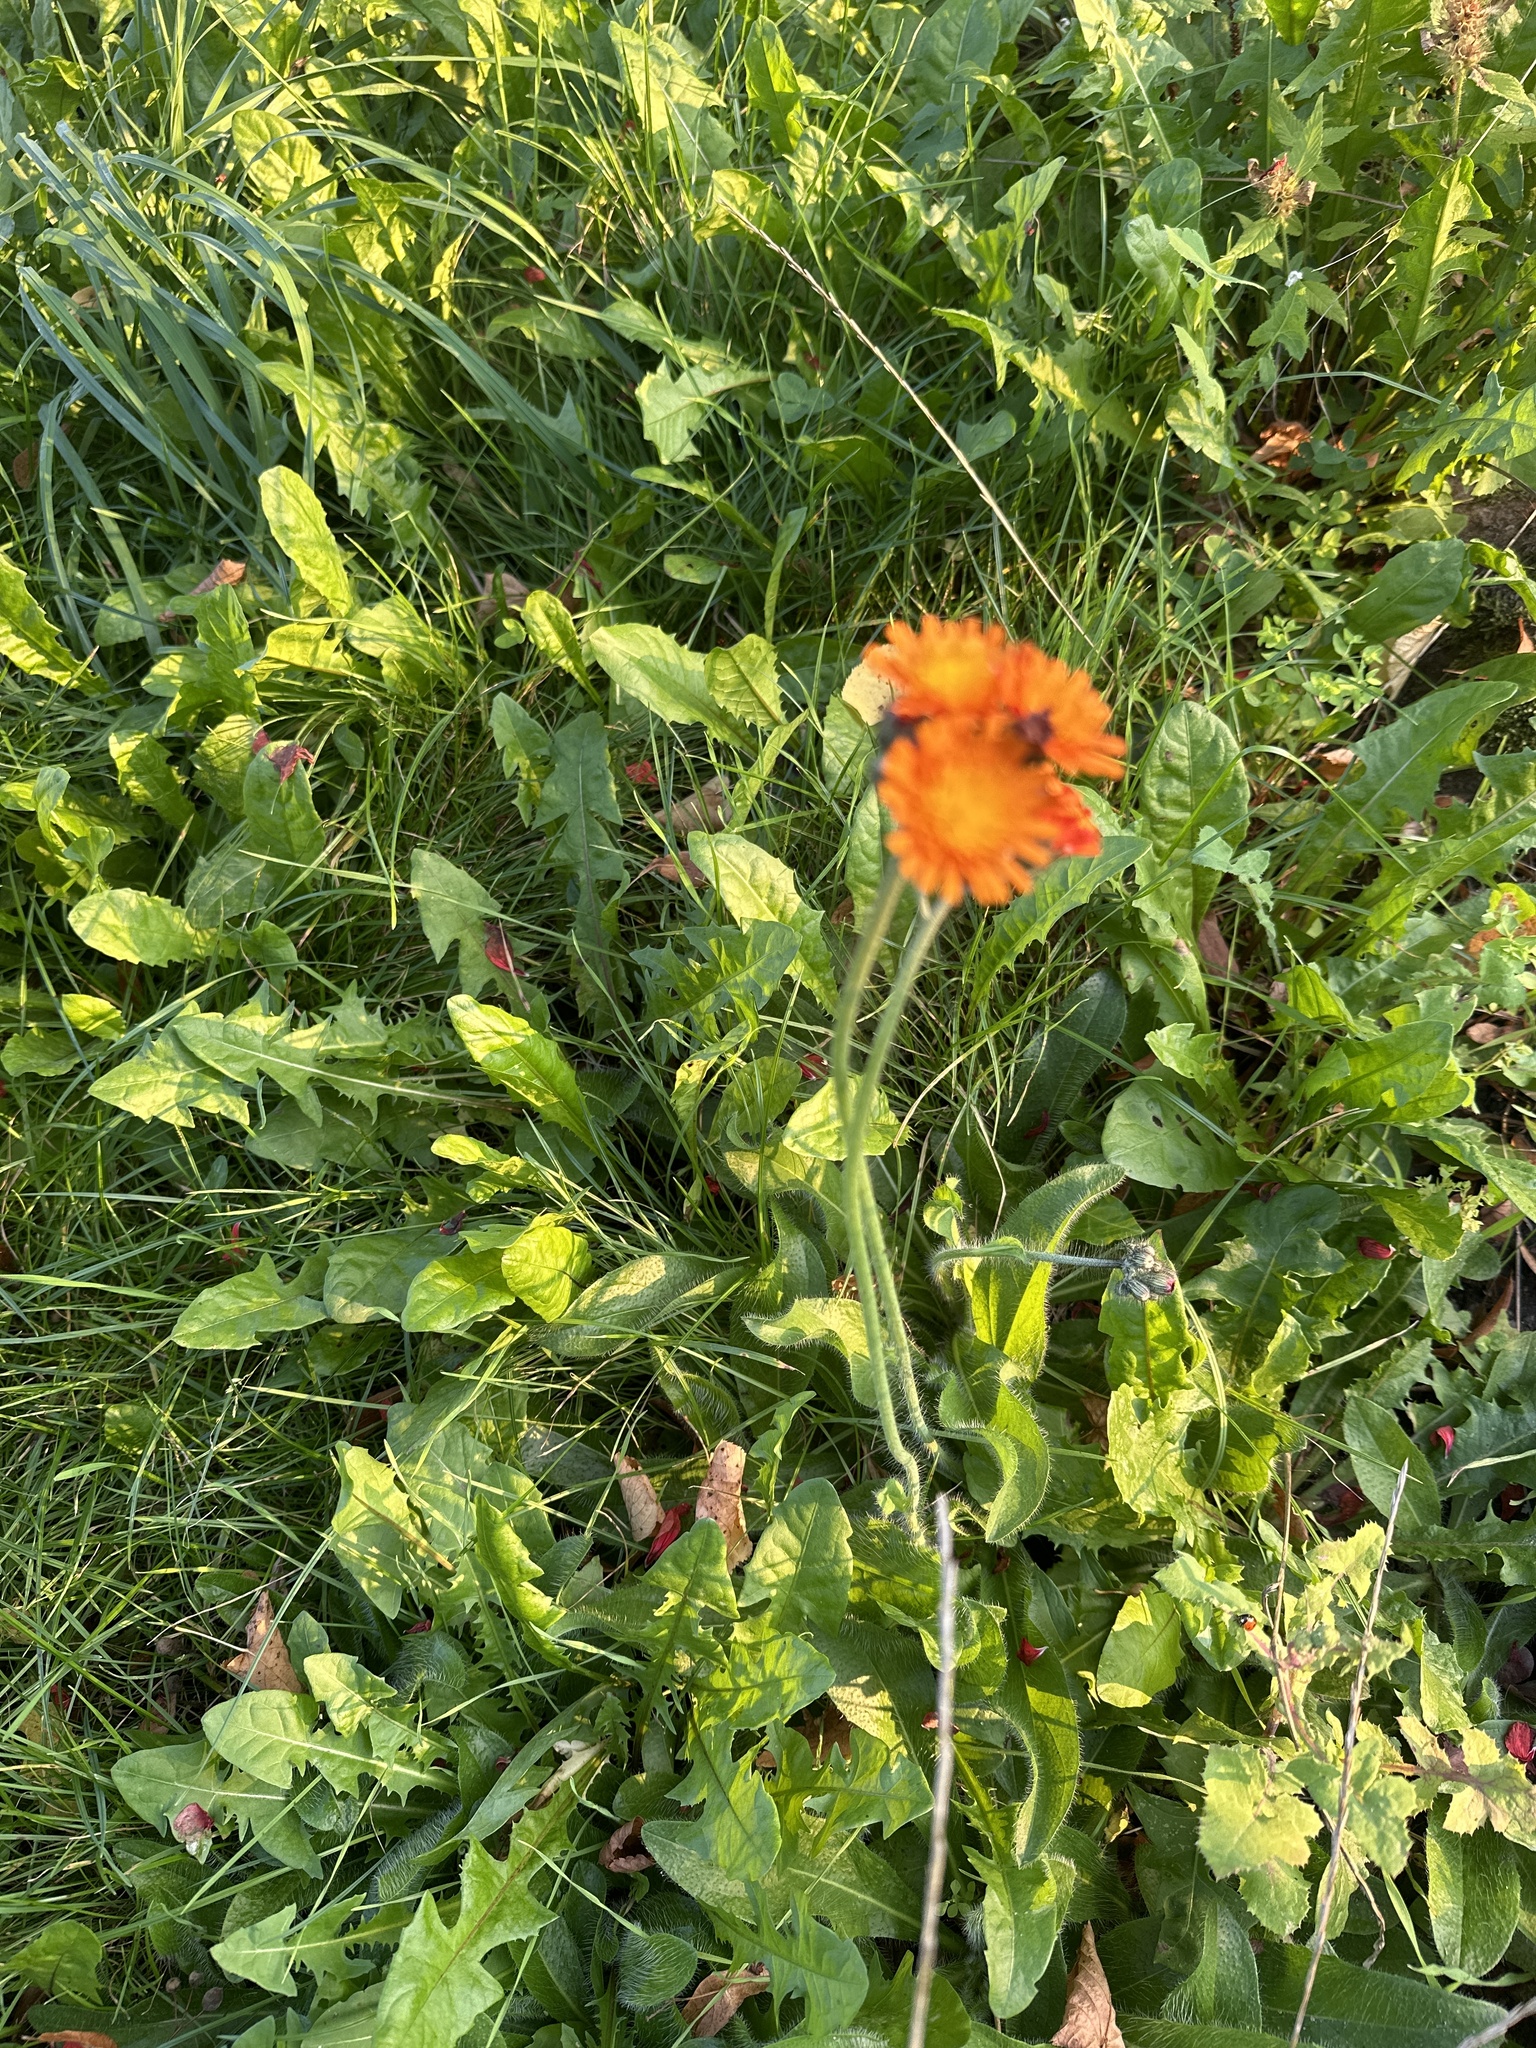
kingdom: Plantae
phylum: Tracheophyta
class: Magnoliopsida
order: Asterales
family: Asteraceae
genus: Pilosella
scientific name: Pilosella aurantiaca
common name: Fox-and-cubs
